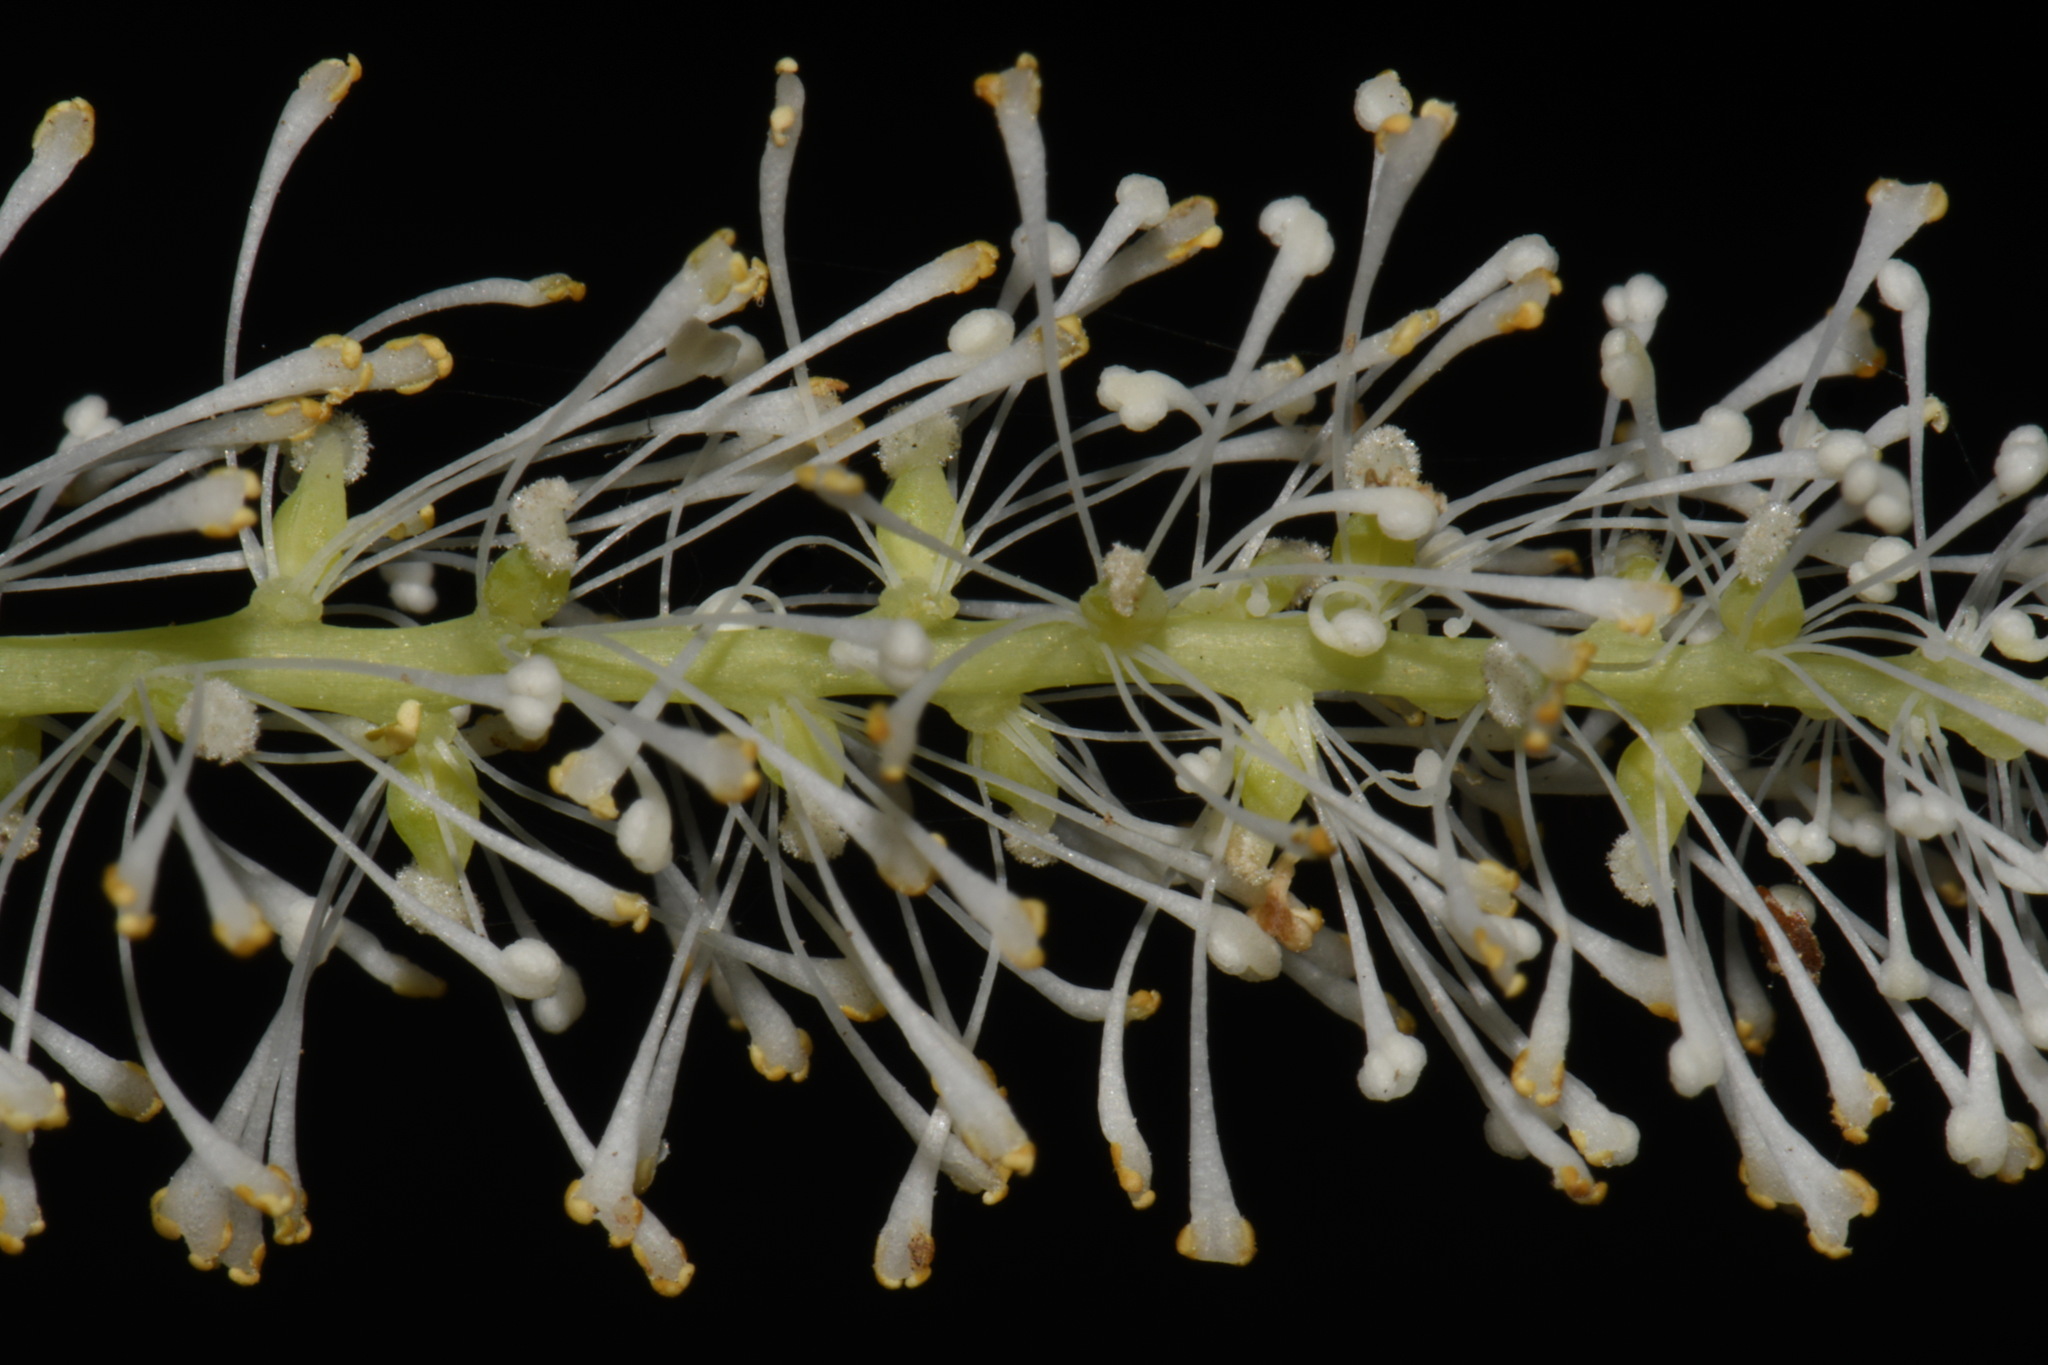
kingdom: Plantae
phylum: Tracheophyta
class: Magnoliopsida
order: Ranunculales
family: Berberidaceae
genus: Achlys
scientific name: Achlys californica
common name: California deer-foot
